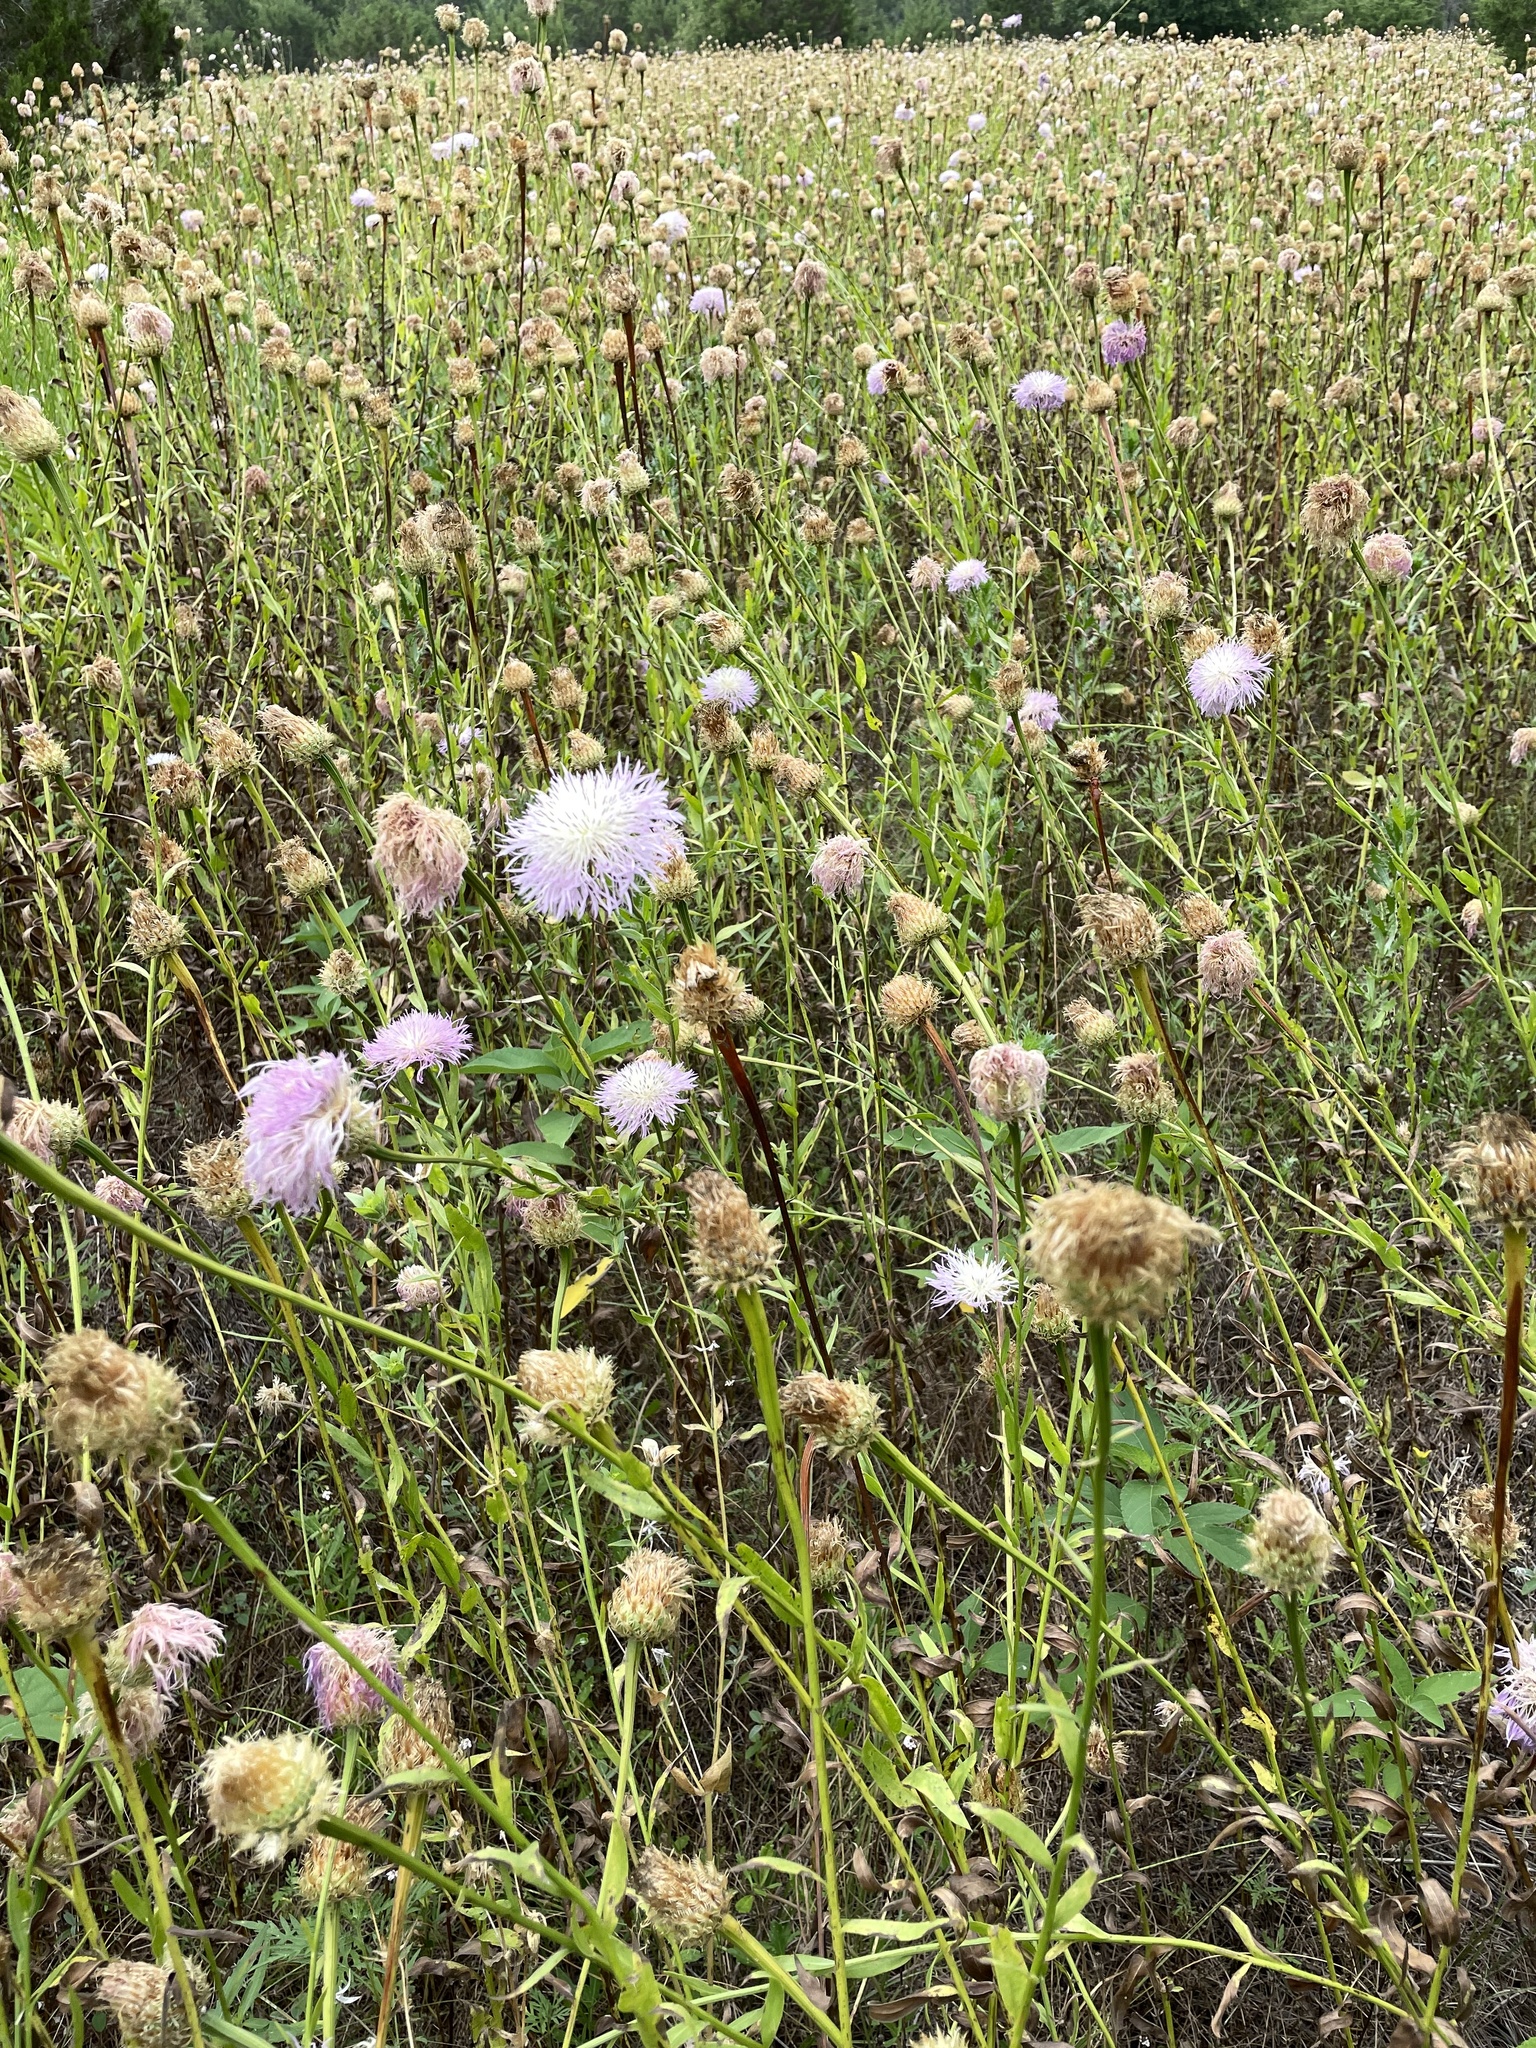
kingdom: Plantae
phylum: Tracheophyta
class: Magnoliopsida
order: Asterales
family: Asteraceae
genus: Plectocephalus
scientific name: Plectocephalus americanus
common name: American basket-flower
